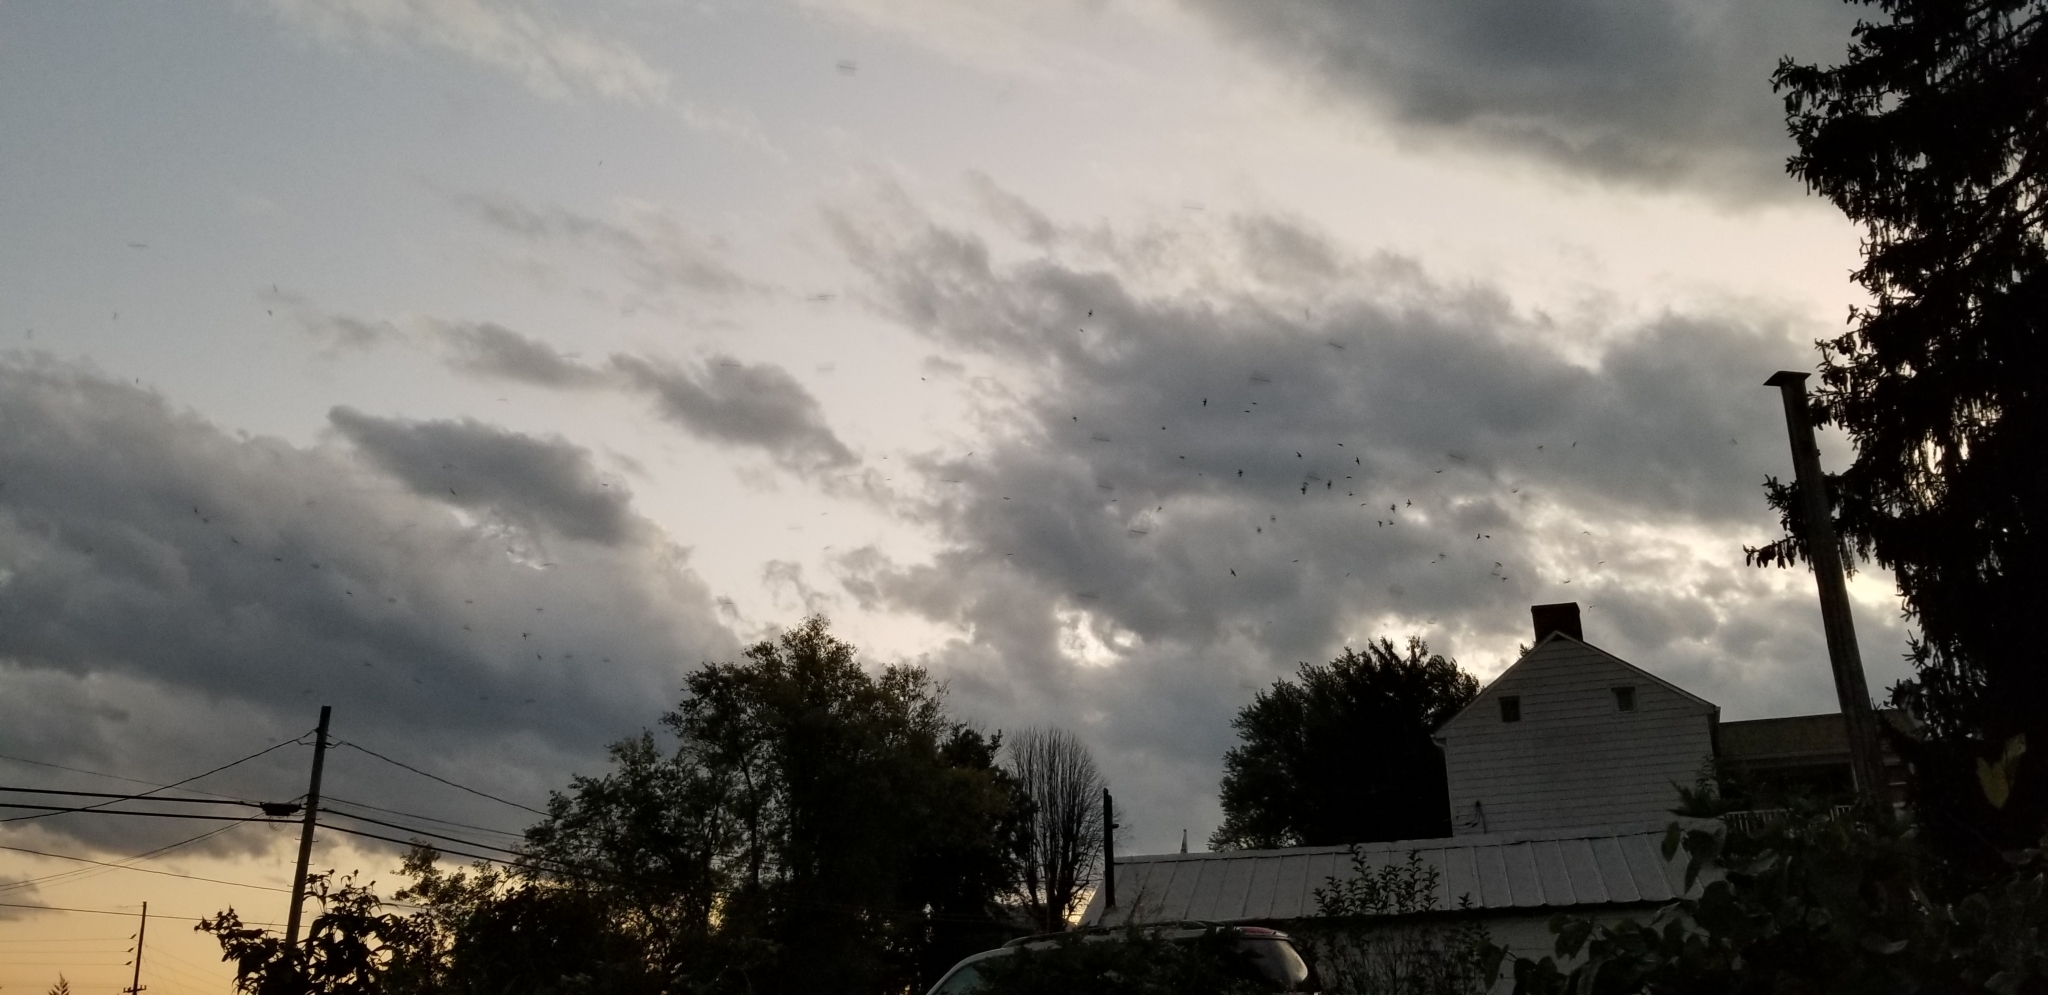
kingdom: Animalia
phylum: Chordata
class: Aves
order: Apodiformes
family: Apodidae
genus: Chaetura
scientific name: Chaetura pelagica
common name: Chimney swift
